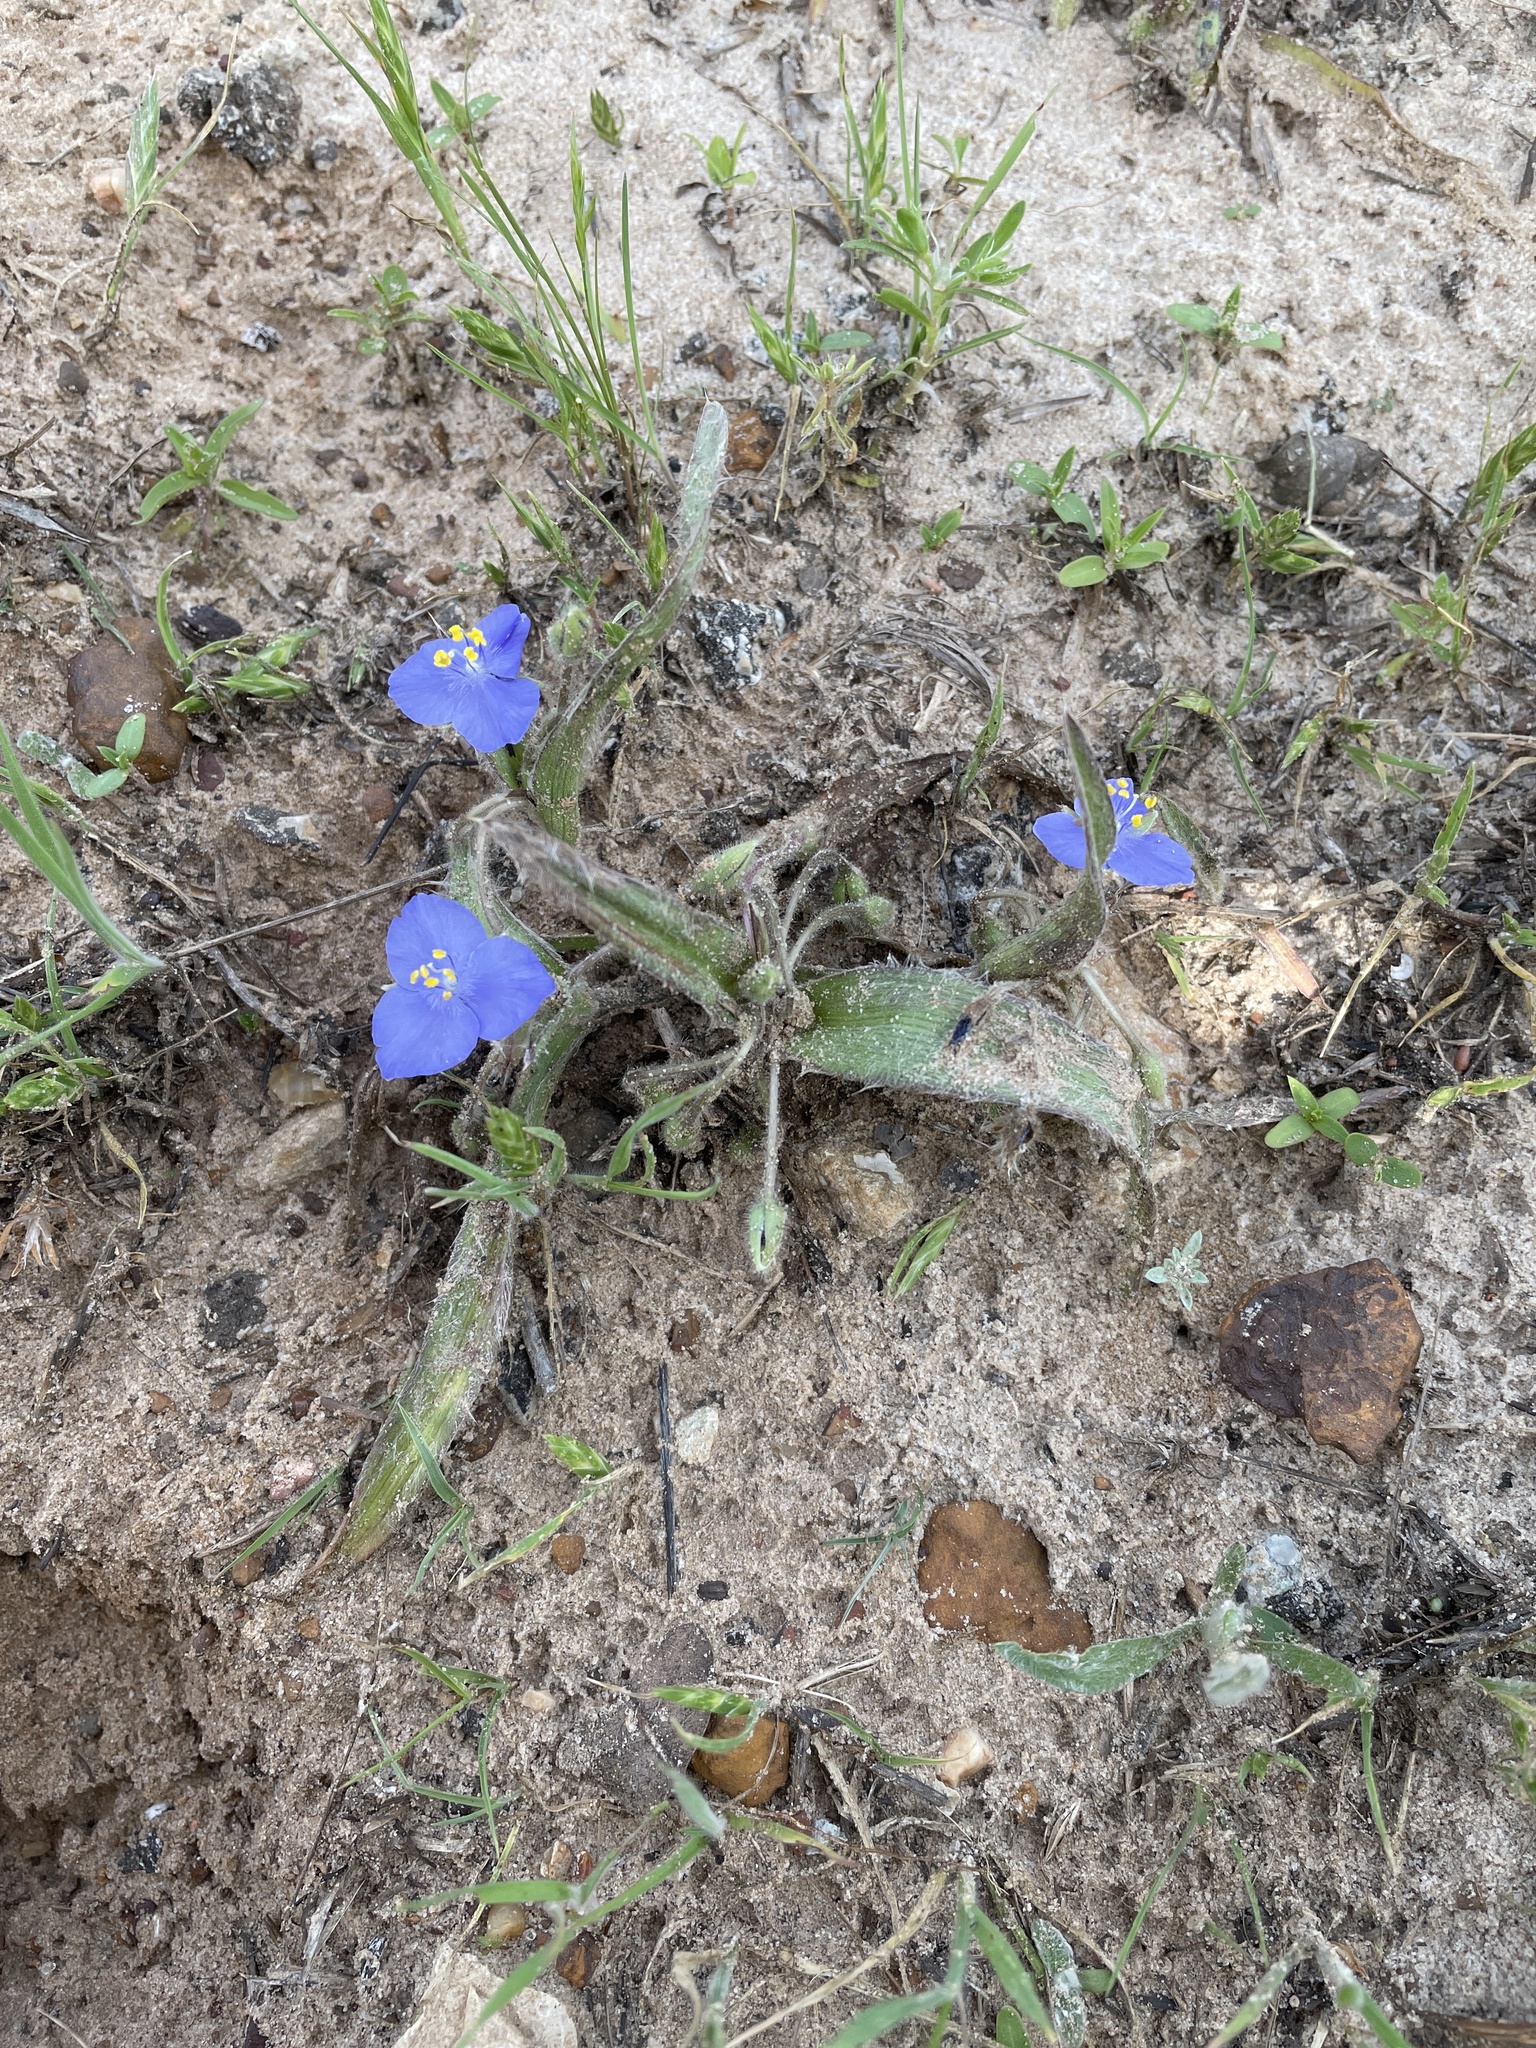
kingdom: Plantae
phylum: Tracheophyta
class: Liliopsida
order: Commelinales
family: Commelinaceae
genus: Tradescantia
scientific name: Tradescantia hirsutiflora
